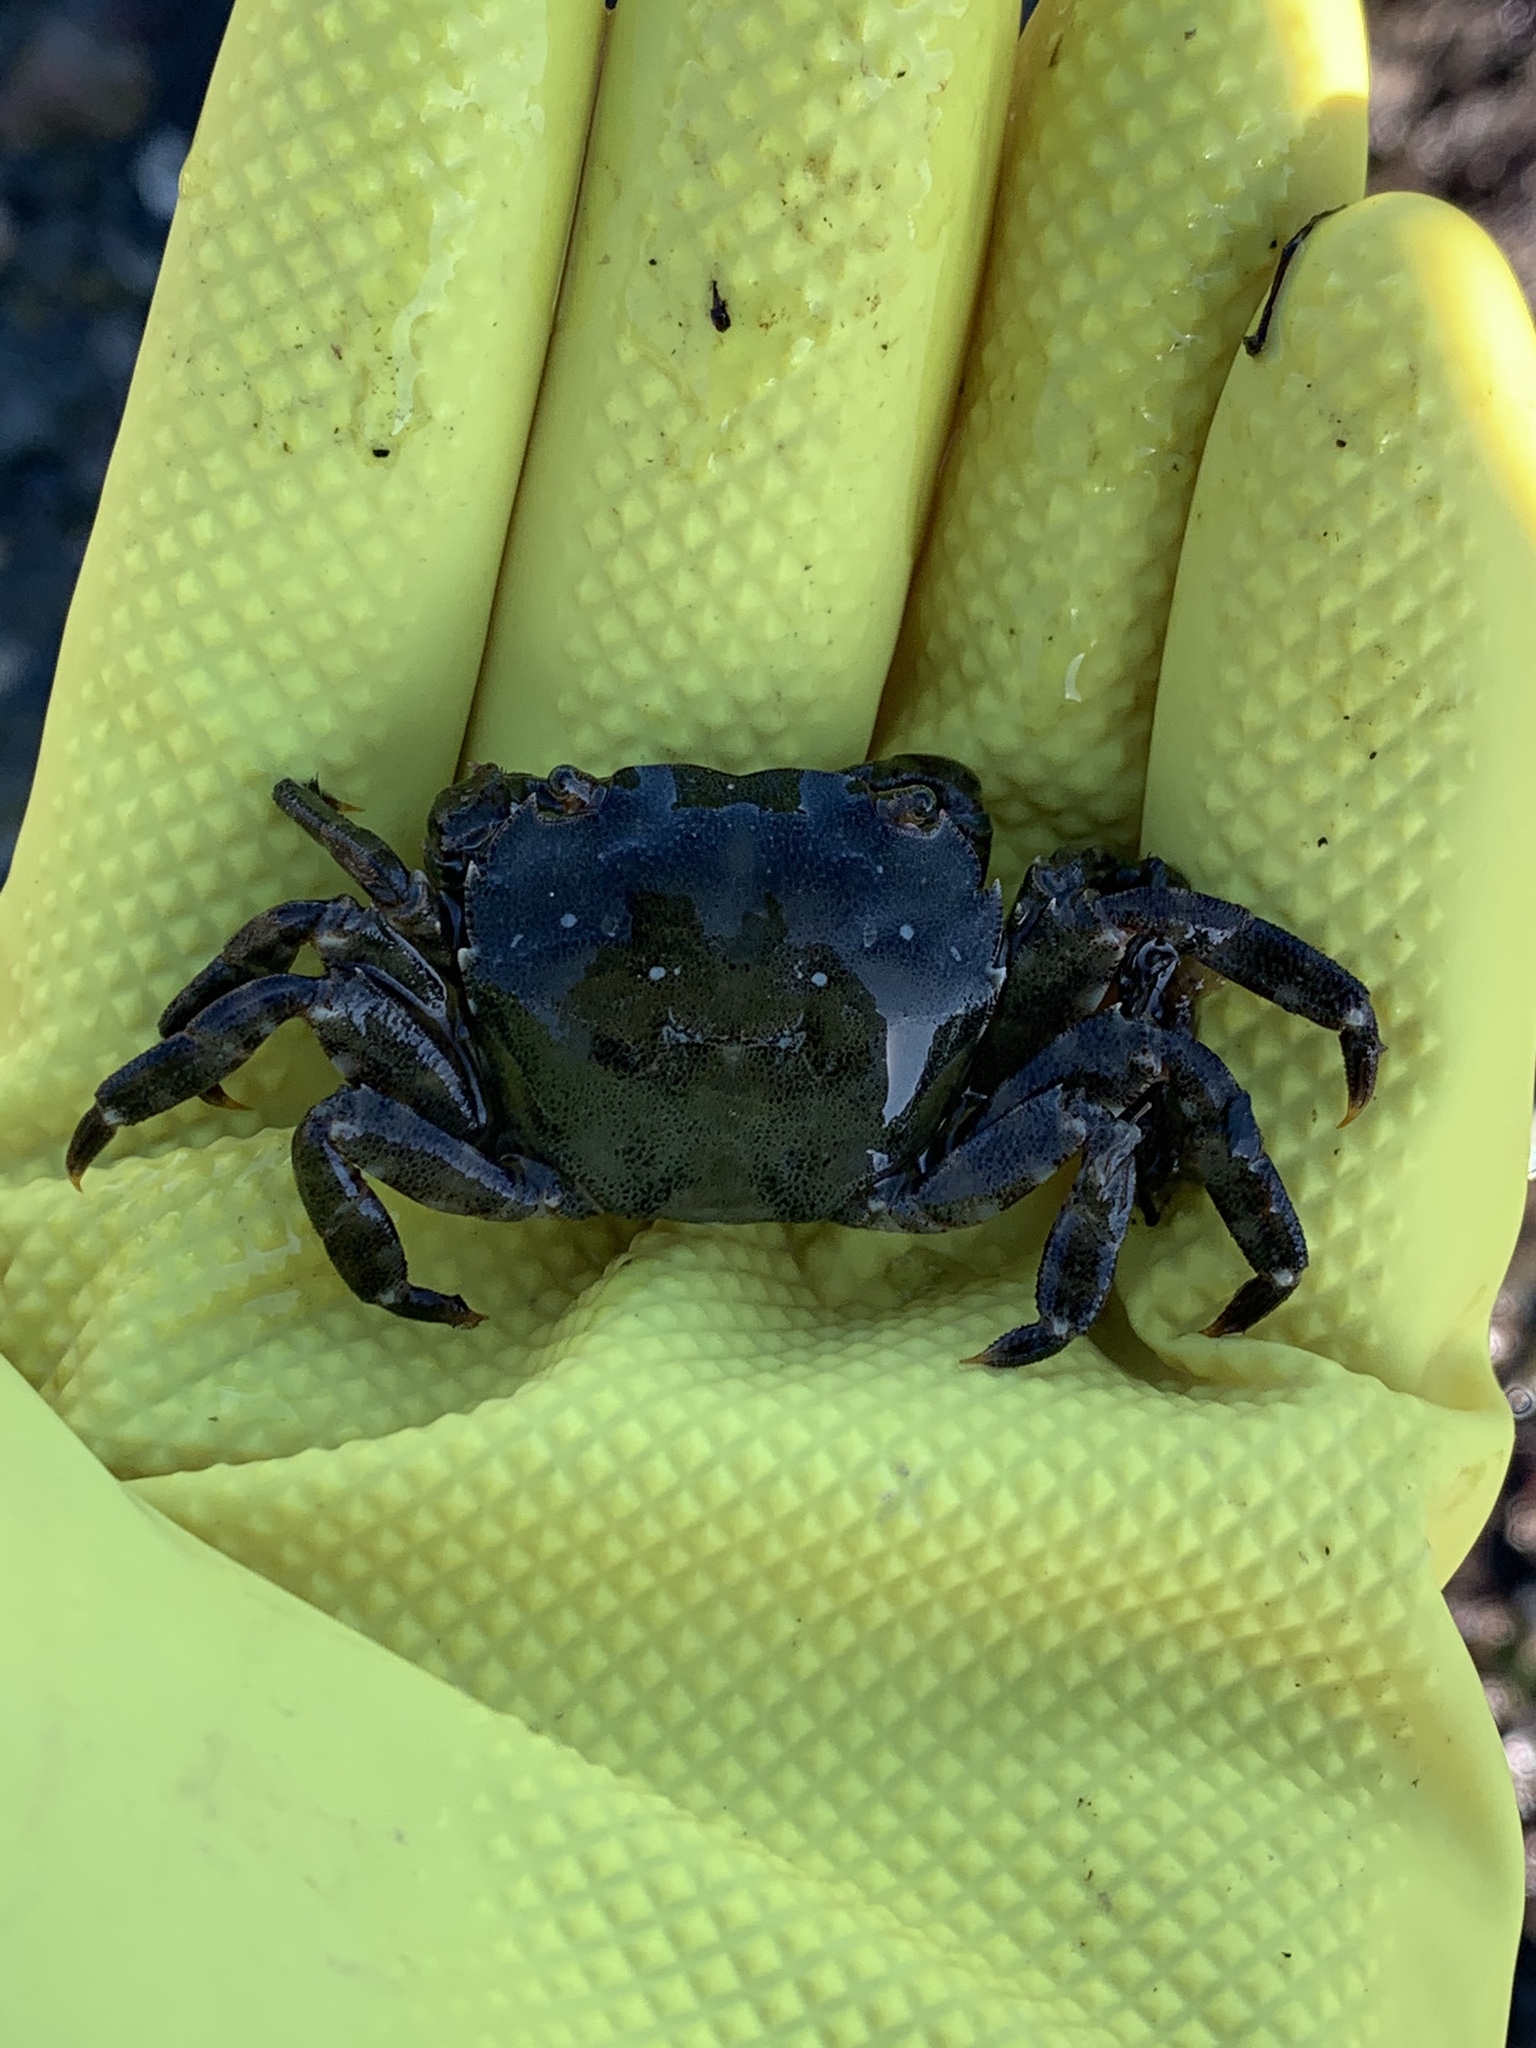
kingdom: Animalia
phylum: Arthropoda
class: Malacostraca
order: Decapoda
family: Varunidae
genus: Hemigrapsus
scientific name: Hemigrapsus sanguineus
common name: Asian shore crab
